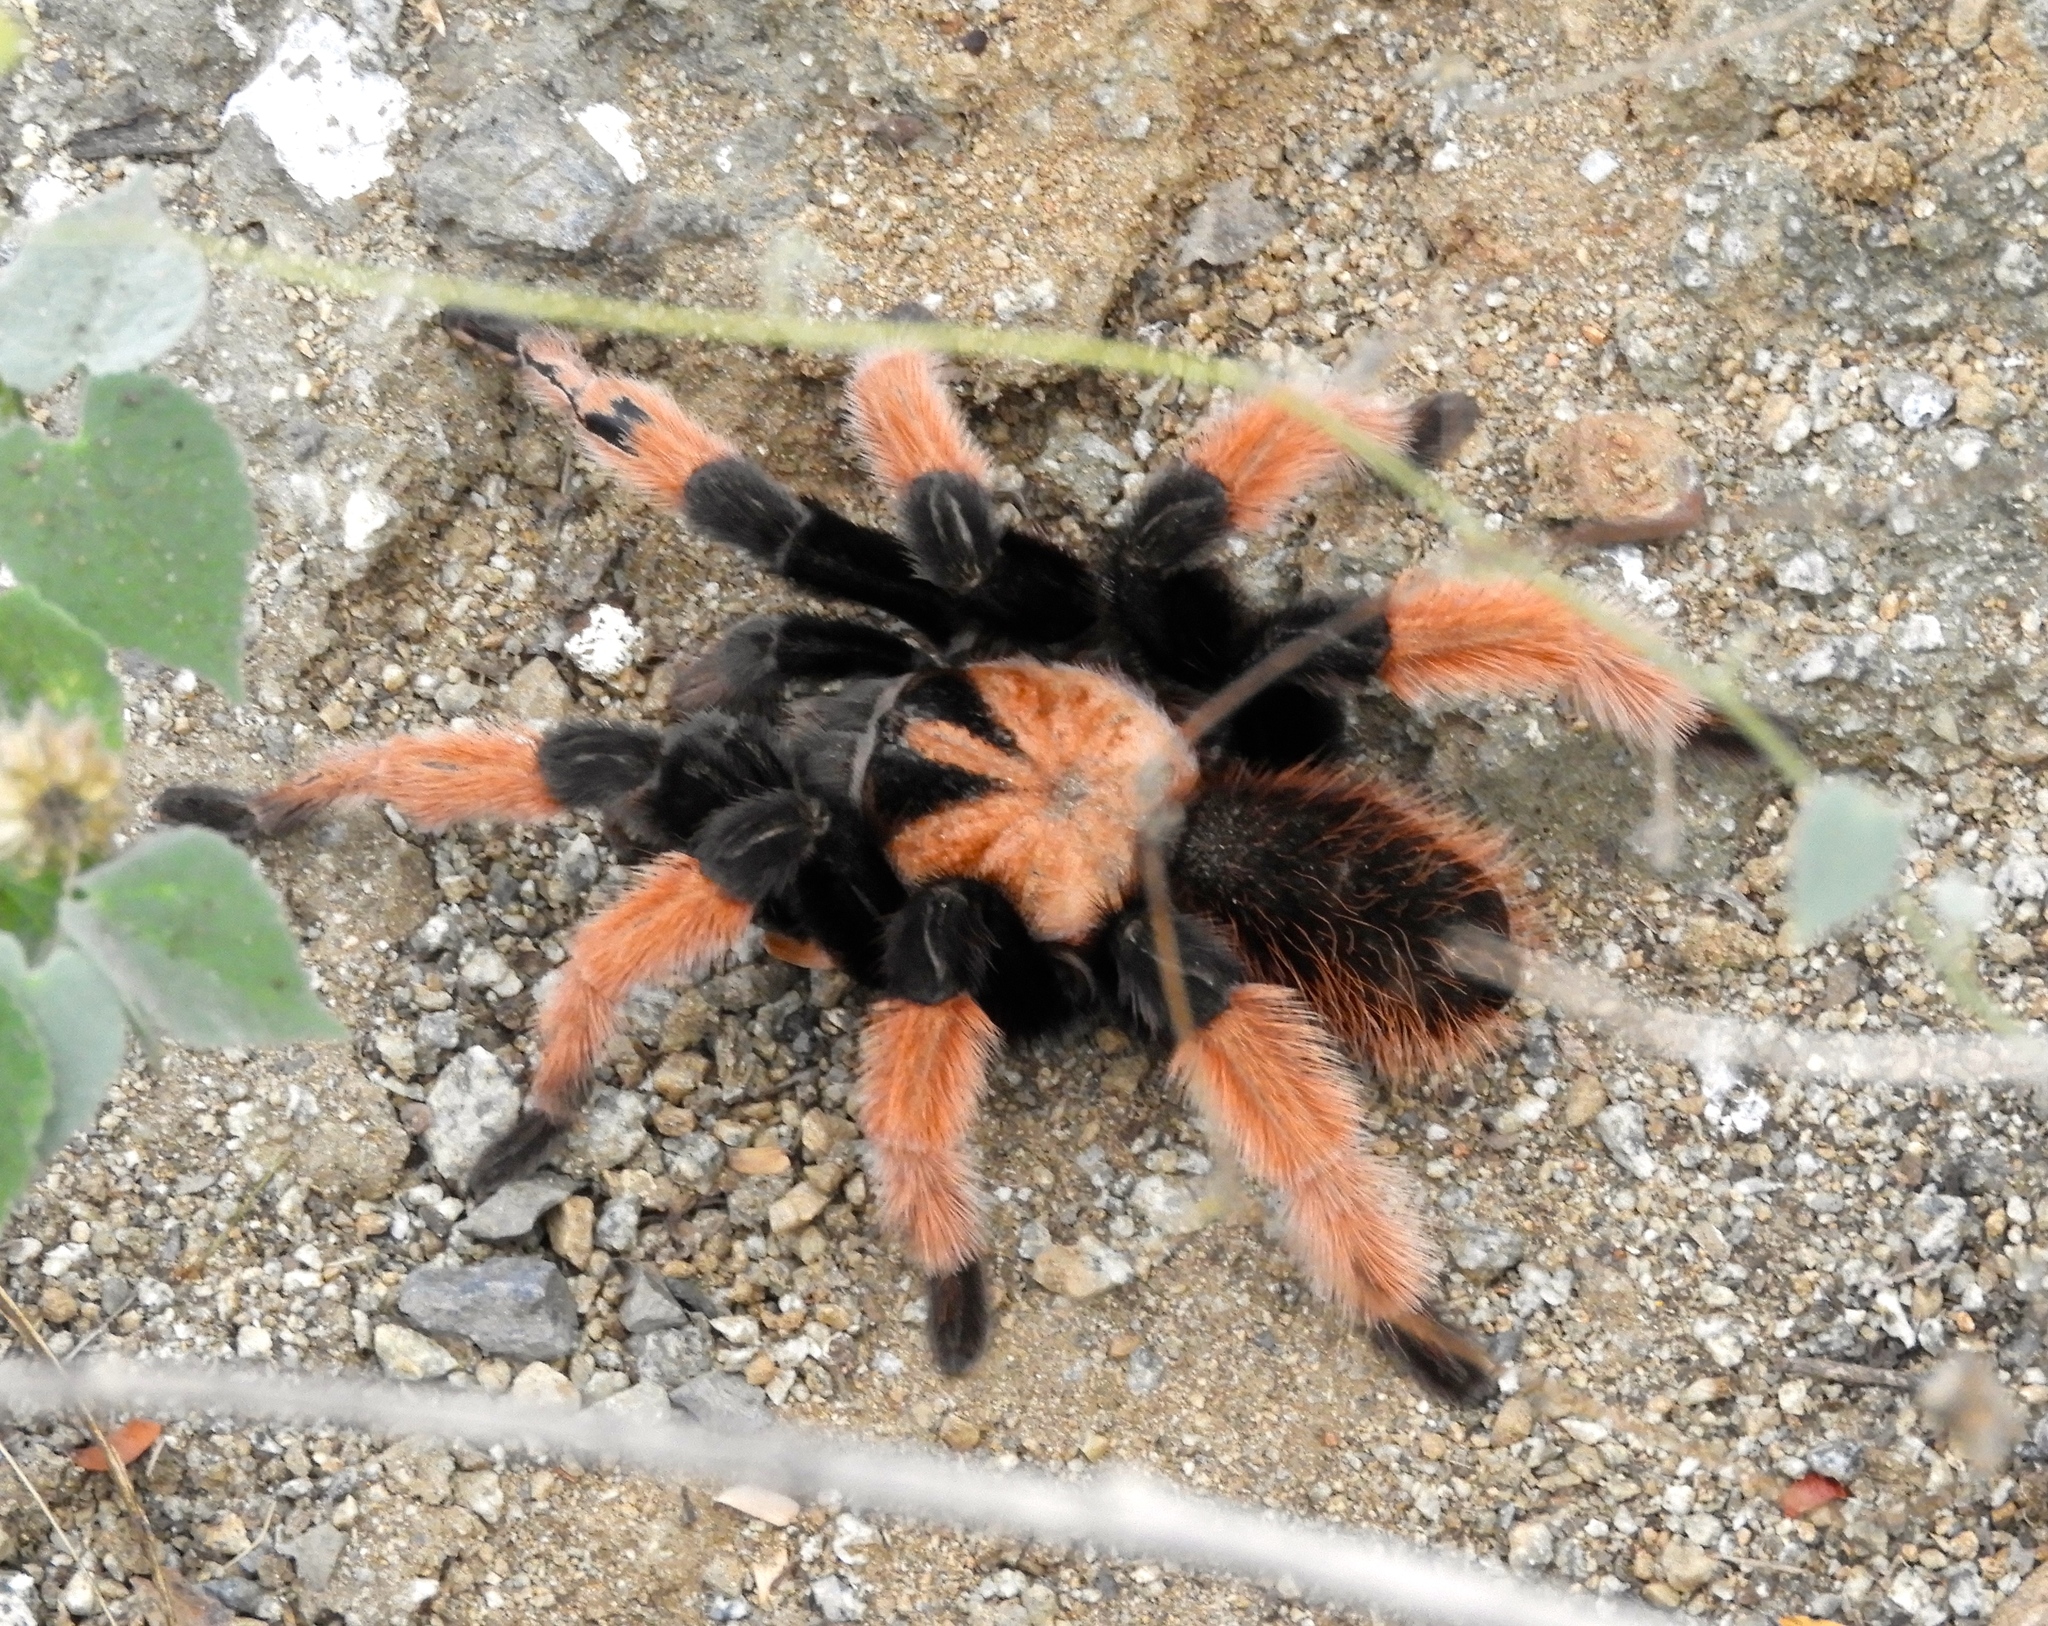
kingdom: Animalia
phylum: Arthropoda
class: Arachnida
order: Araneae
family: Theraphosidae
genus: Brachypelma
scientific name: Brachypelma emilia
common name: Mexican redleg
